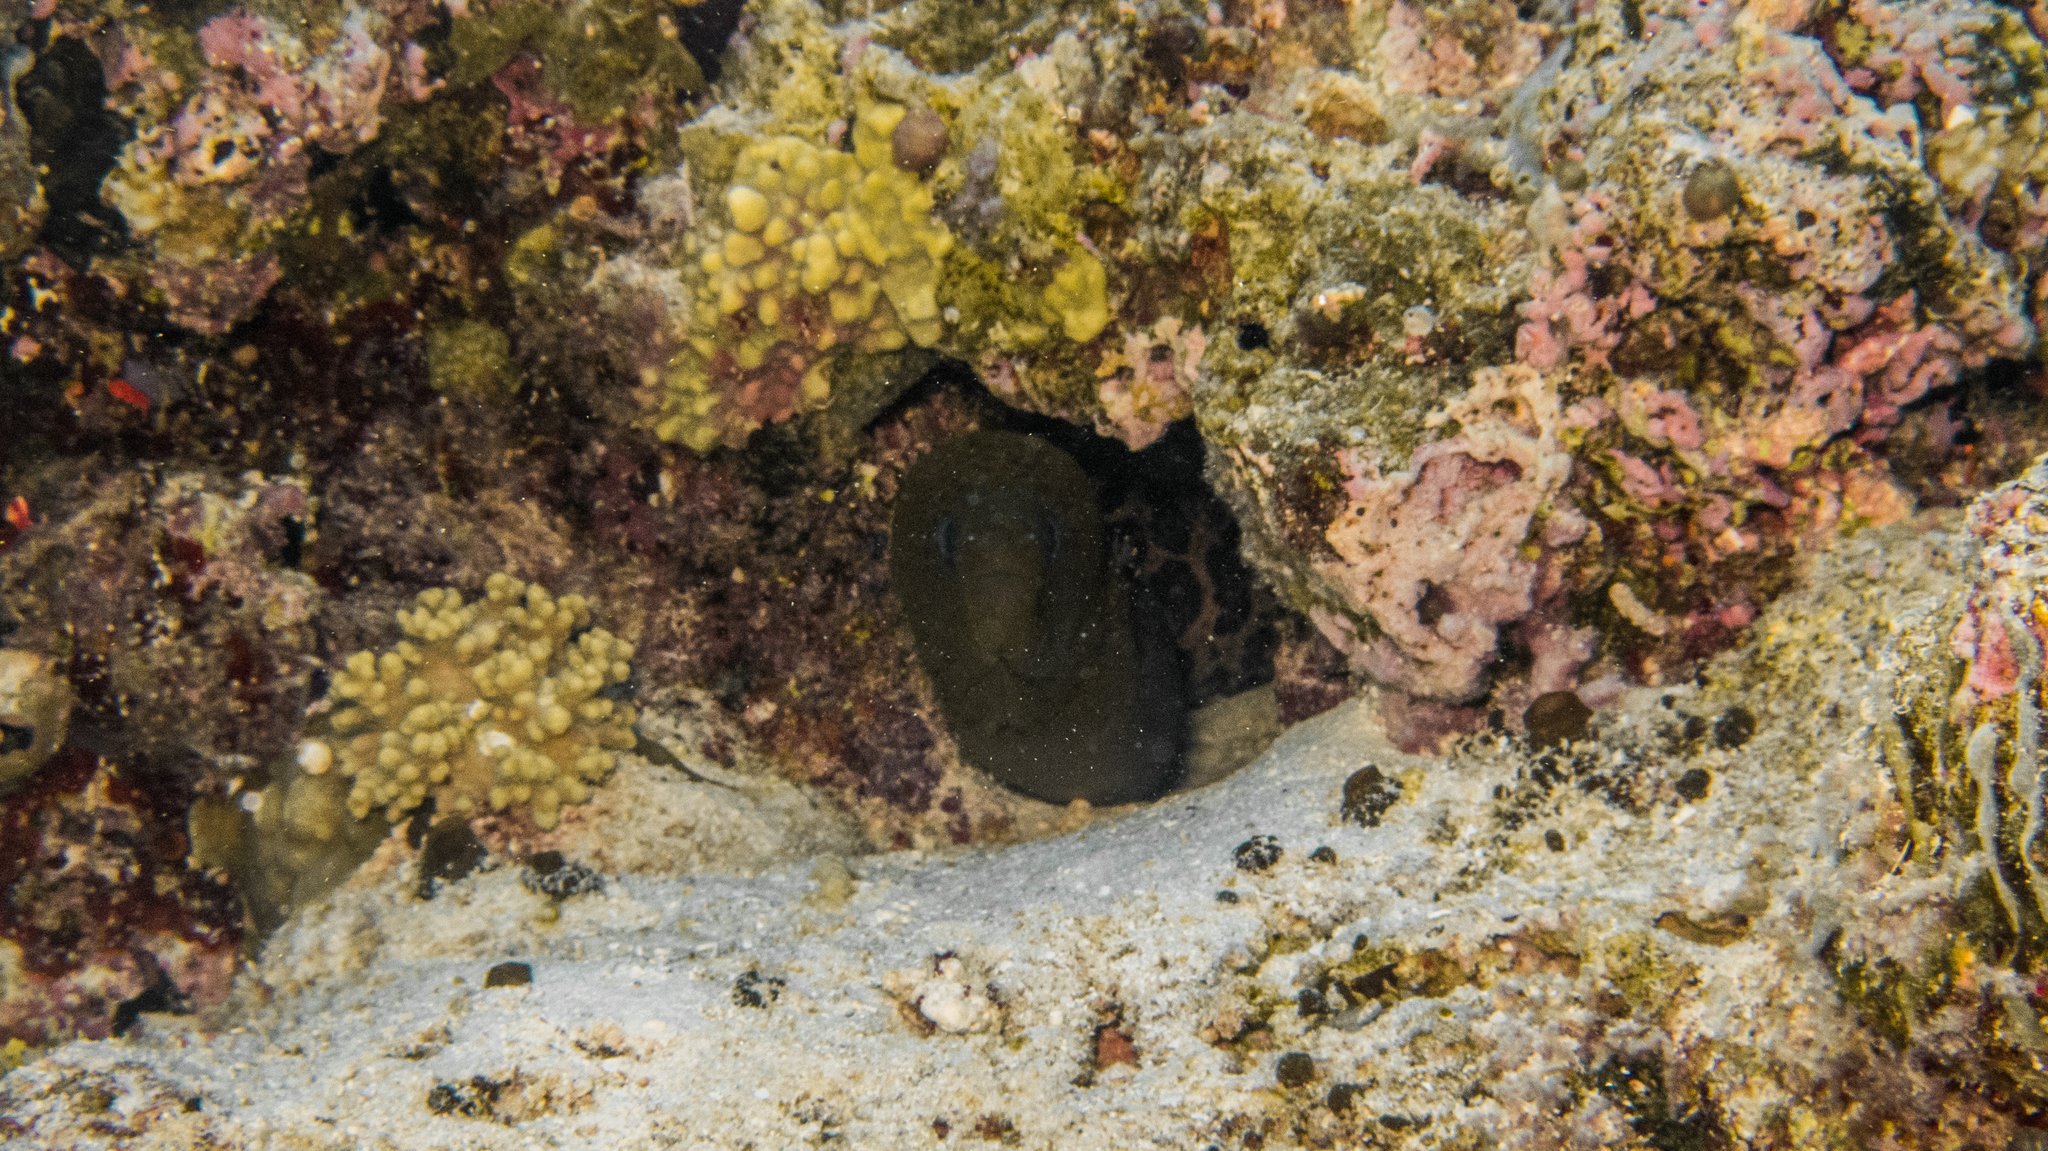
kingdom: Animalia
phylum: Chordata
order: Anguilliformes
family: Muraenidae
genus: Gymnothorax
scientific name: Gymnothorax javanicus
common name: Giant moray
